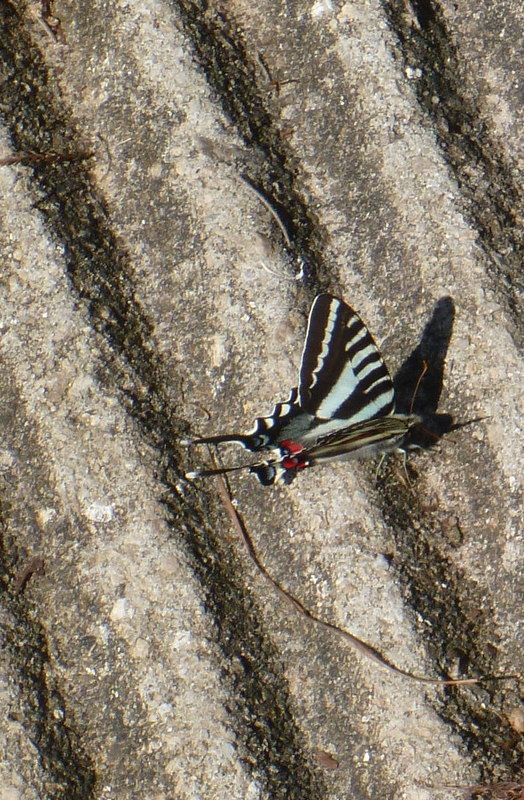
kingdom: Animalia
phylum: Arthropoda
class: Insecta
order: Lepidoptera
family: Papilionidae
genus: Protographium
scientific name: Protographium marcellus
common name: Zebra swallowtail
